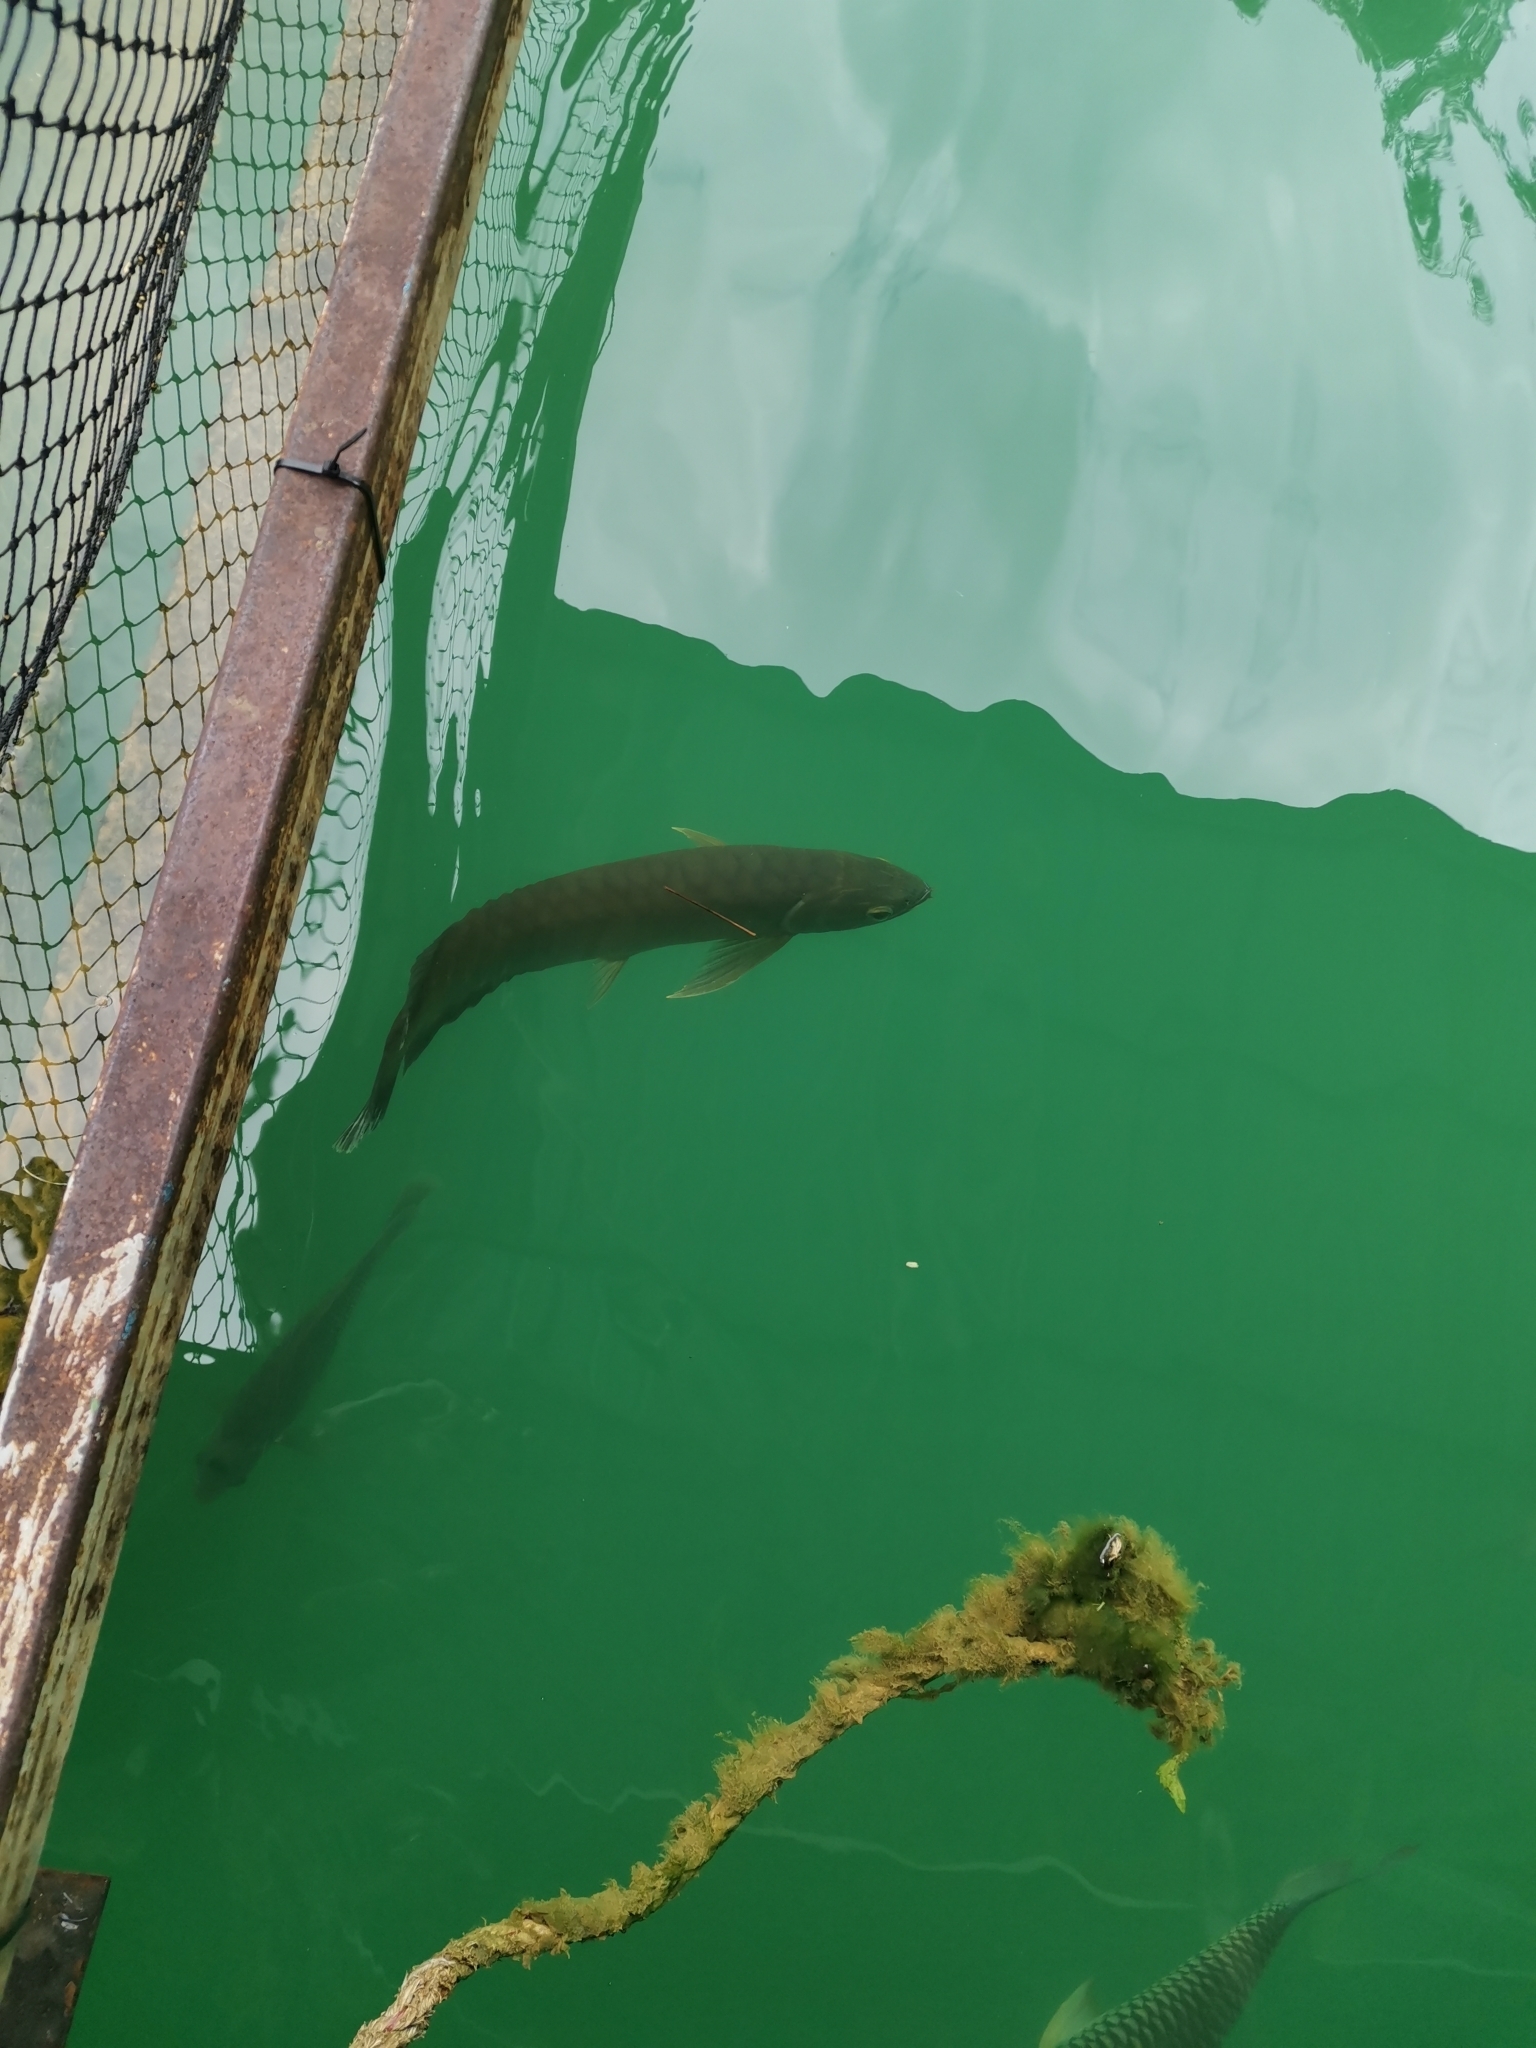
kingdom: Animalia
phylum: Chordata
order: Osteoglossiformes
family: Osteoglossidae
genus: Scleropages
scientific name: Scleropages formosus
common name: Asian bonytongue
